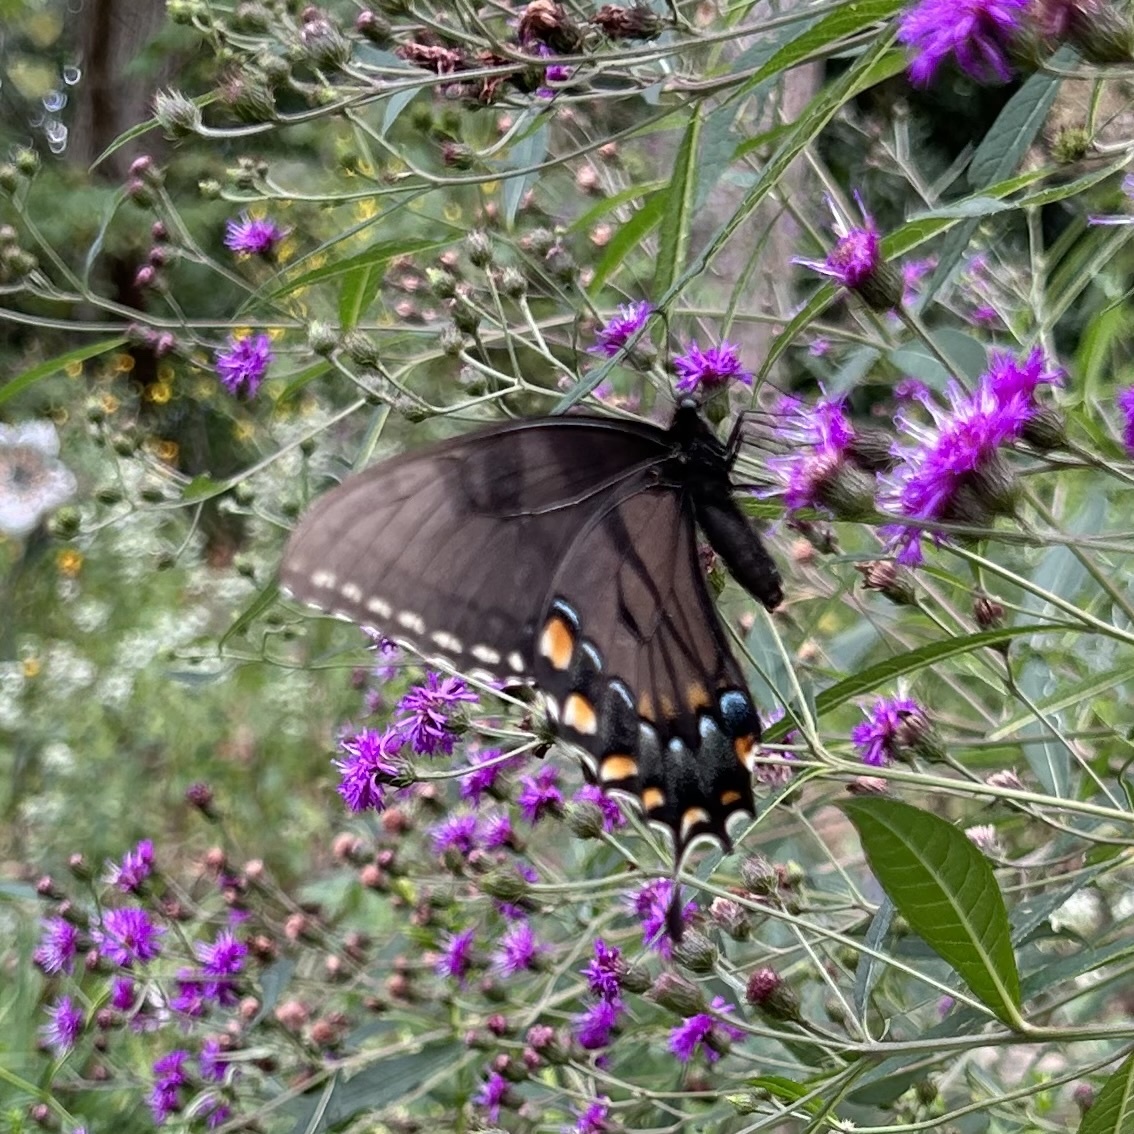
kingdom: Animalia
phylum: Arthropoda
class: Insecta
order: Lepidoptera
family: Papilionidae
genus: Papilio
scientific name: Papilio glaucus
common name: Tiger swallowtail
